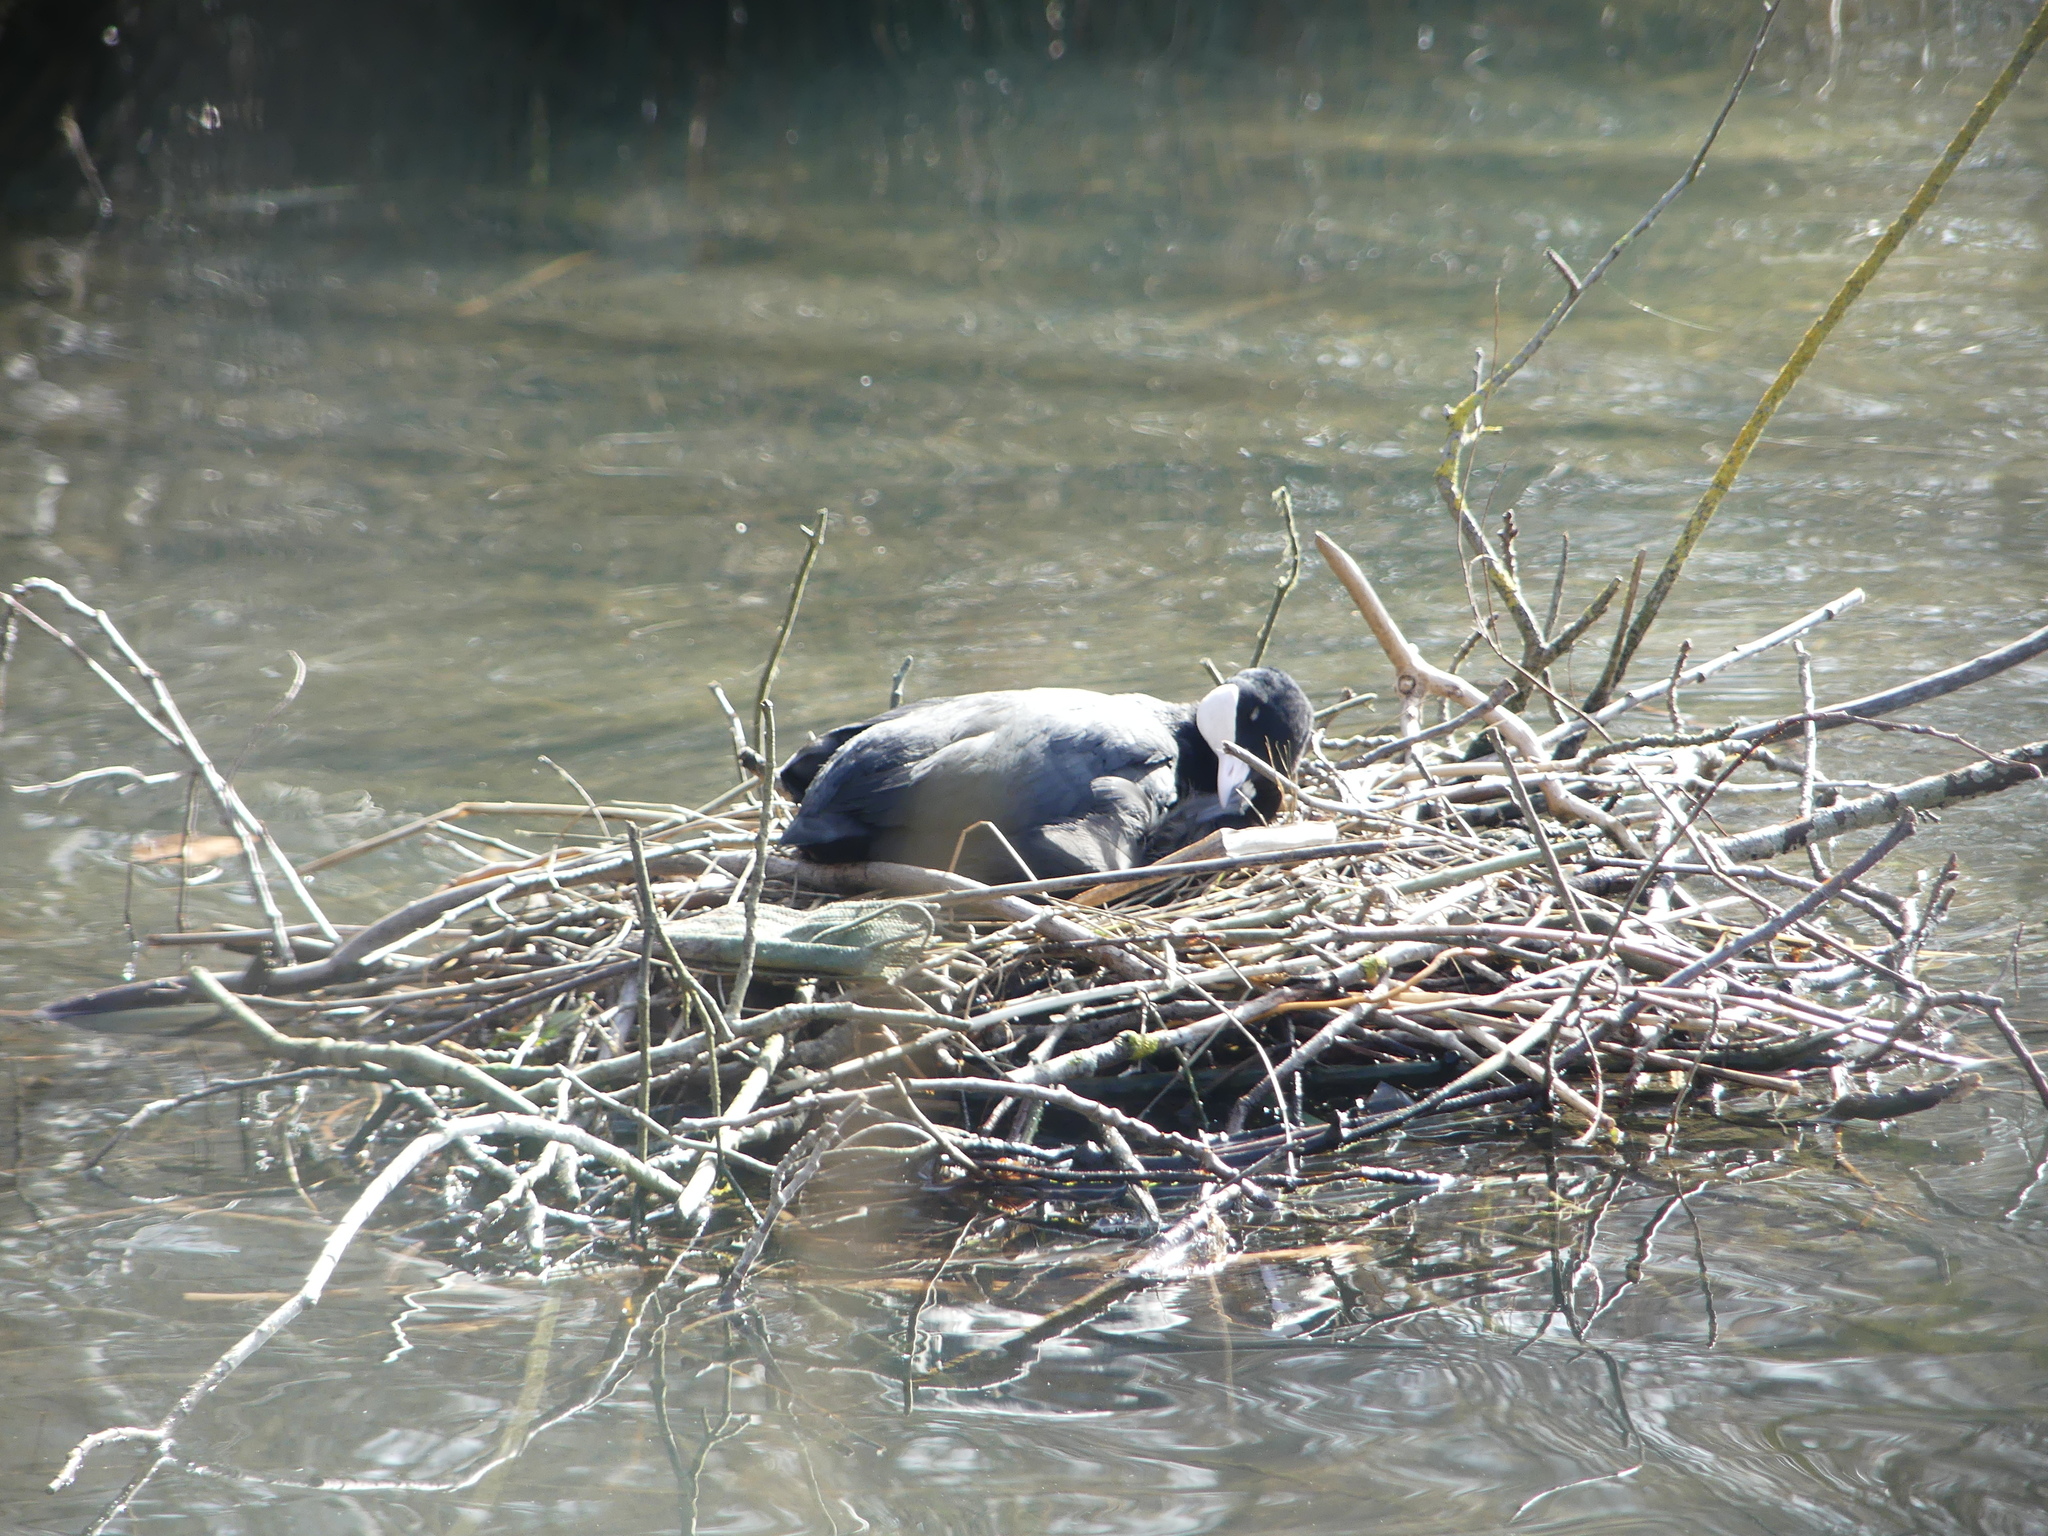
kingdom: Animalia
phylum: Chordata
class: Aves
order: Gruiformes
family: Rallidae
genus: Fulica
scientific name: Fulica atra
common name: Eurasian coot
